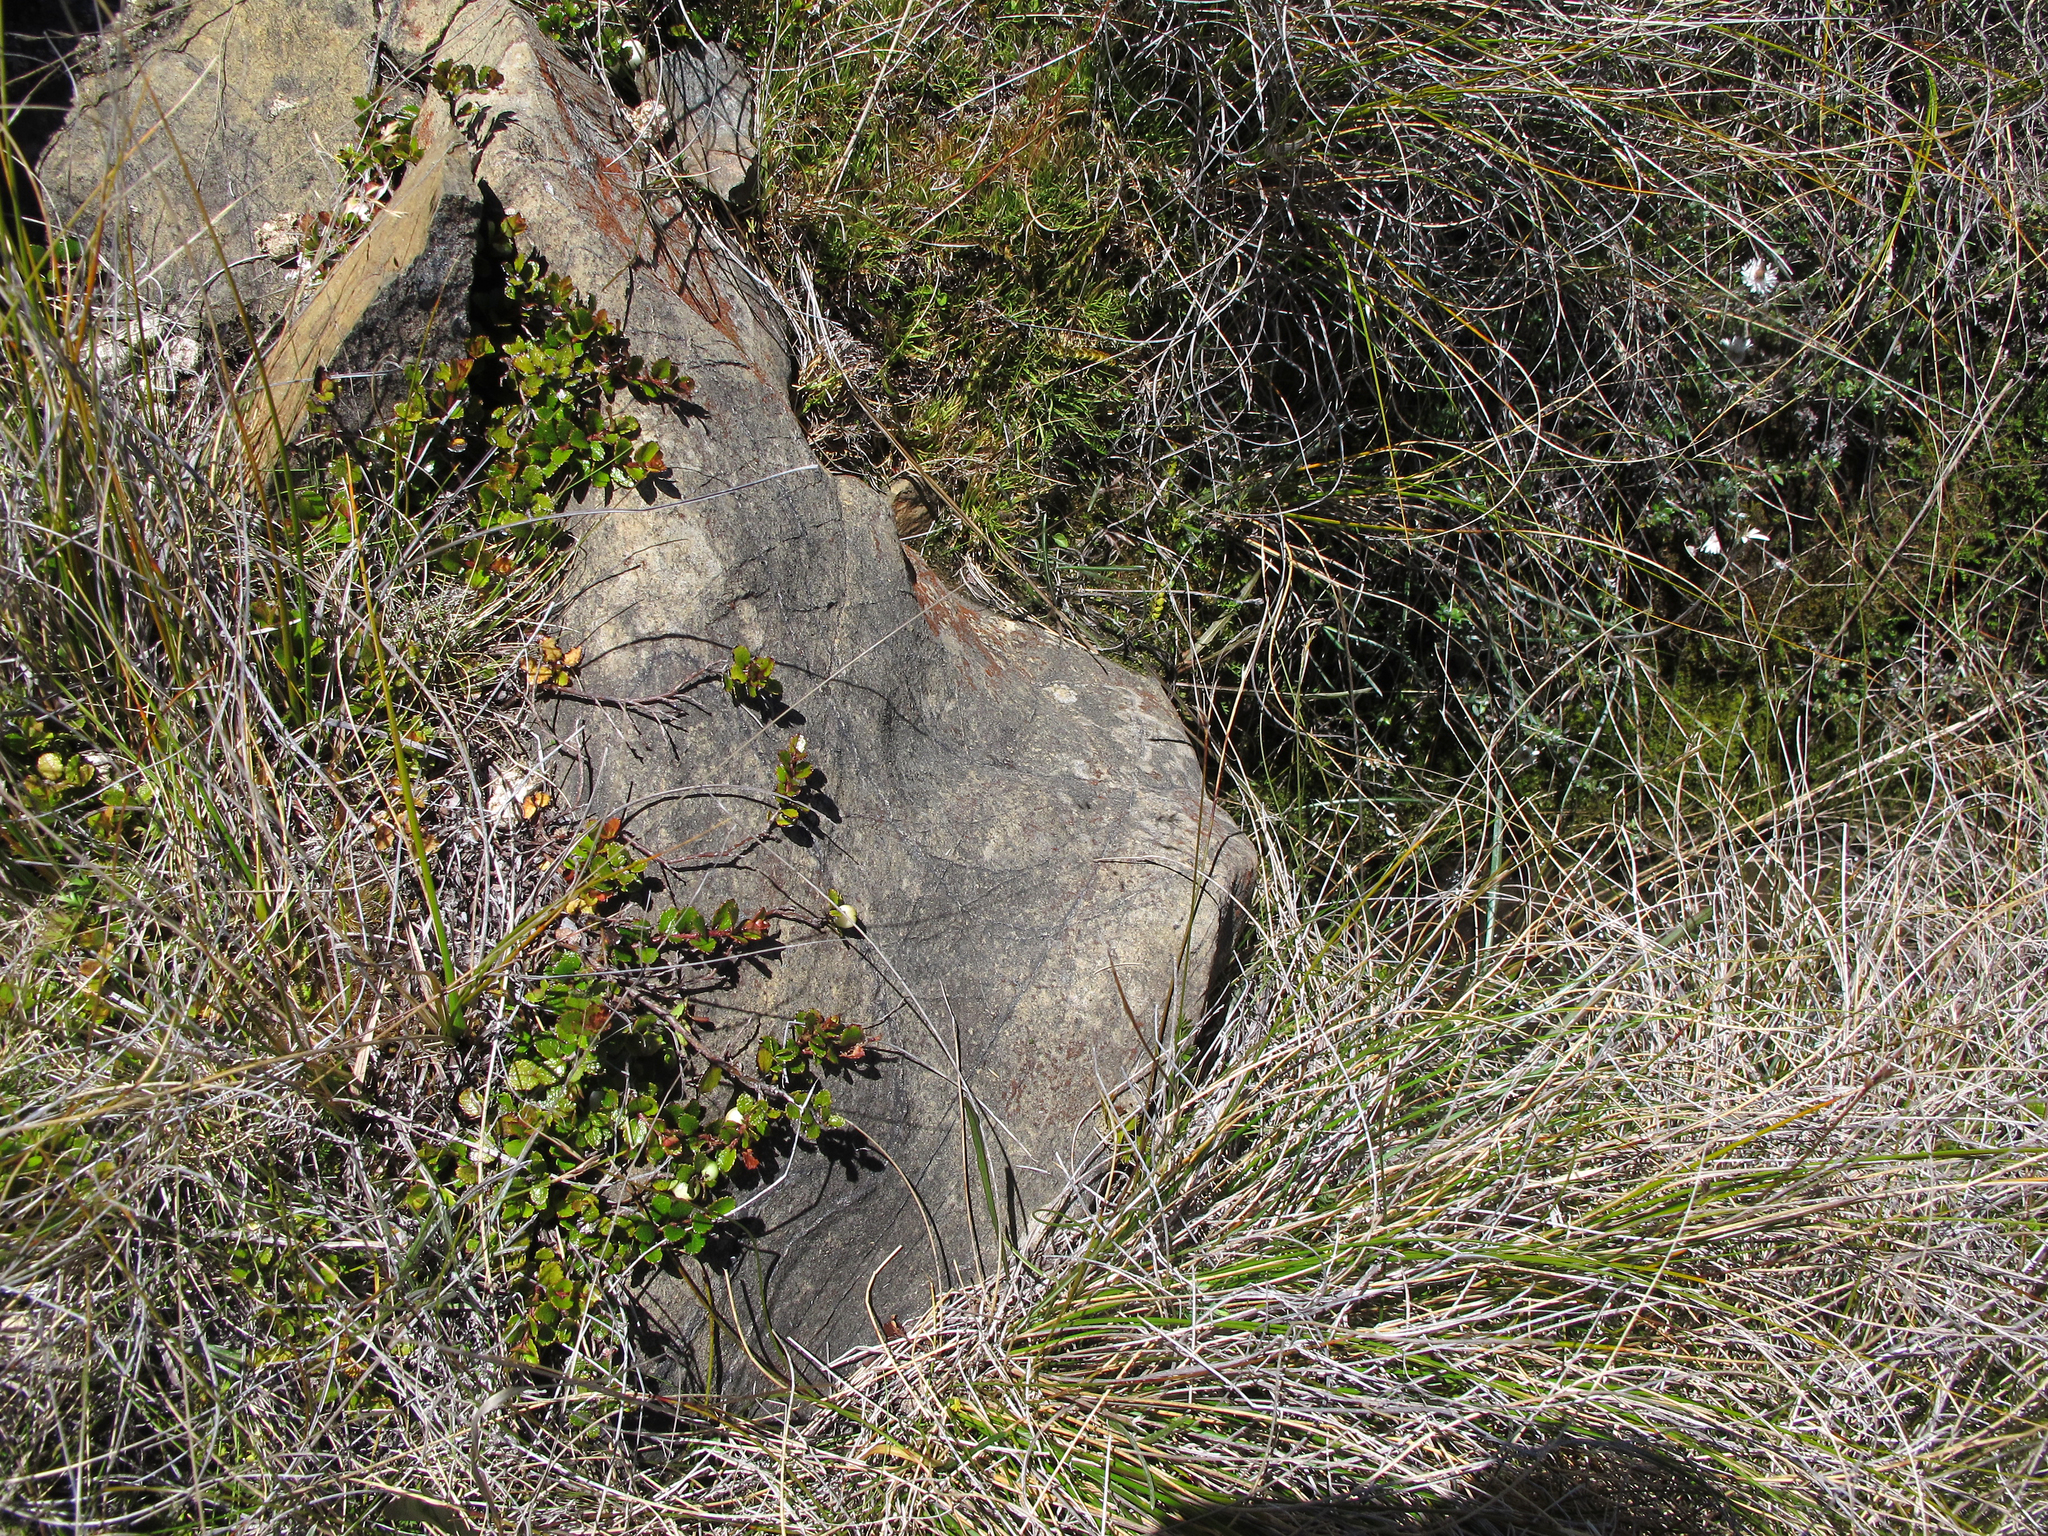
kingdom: Plantae
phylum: Tracheophyta
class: Magnoliopsida
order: Ericales
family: Ericaceae
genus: Gaultheria
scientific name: Gaultheria depressa
